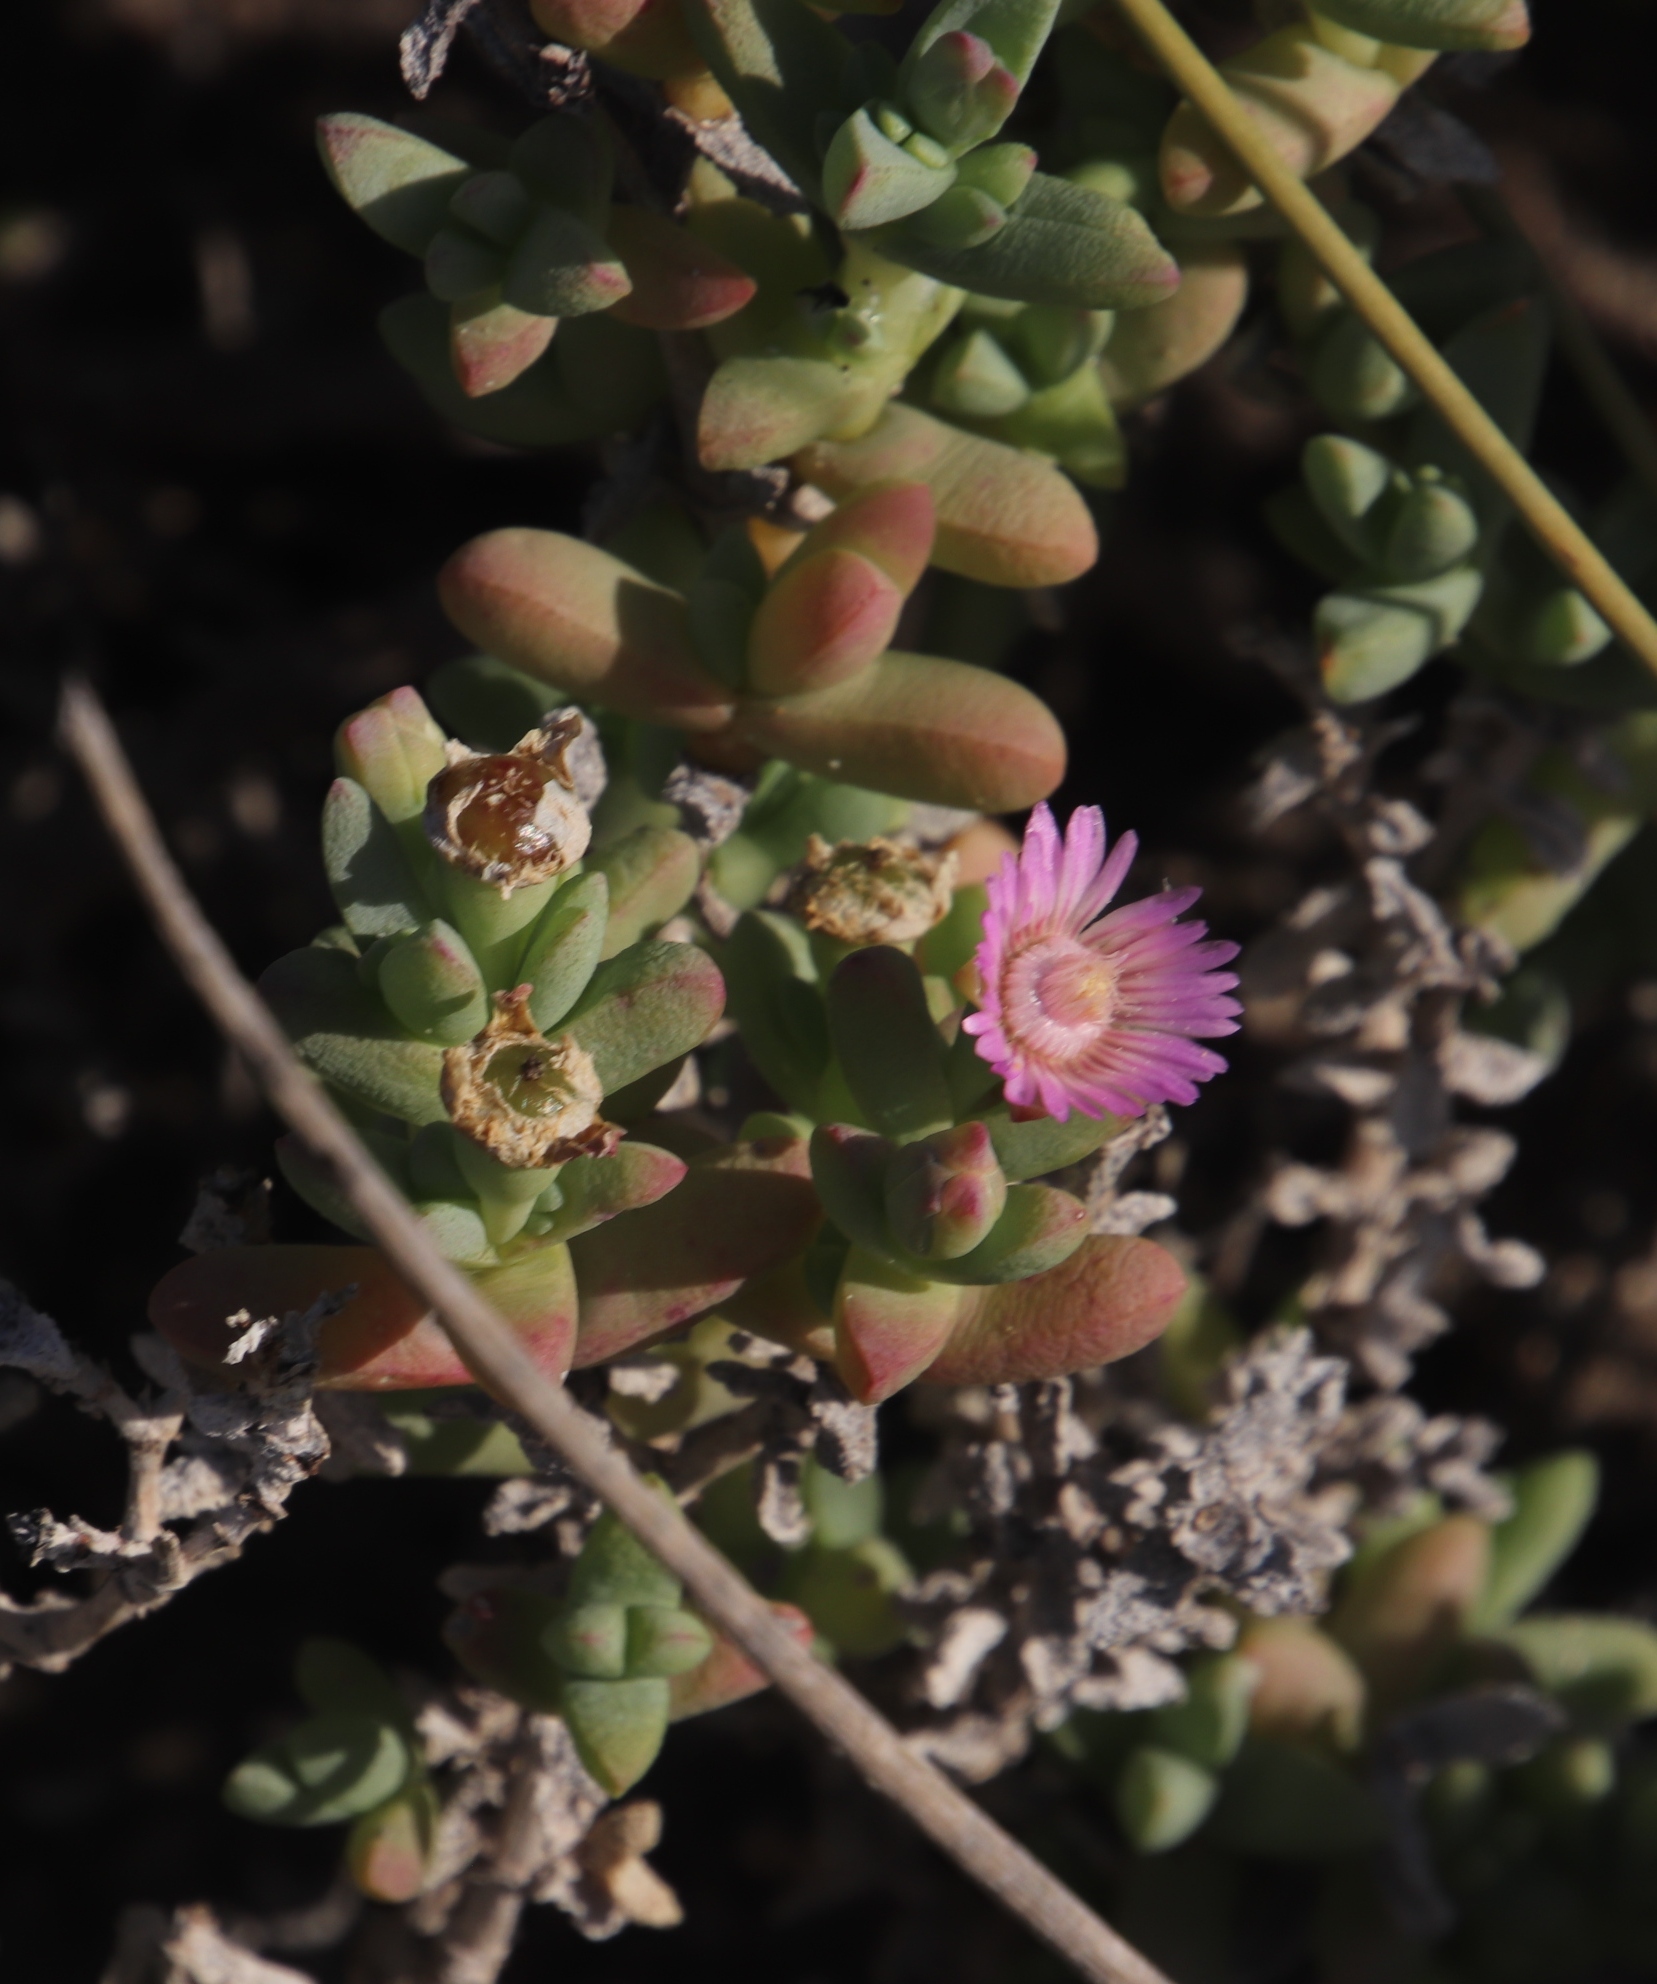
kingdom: Plantae
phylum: Tracheophyta
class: Magnoliopsida
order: Caryophyllales
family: Aizoaceae
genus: Amphibolia
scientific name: Amphibolia laevis
